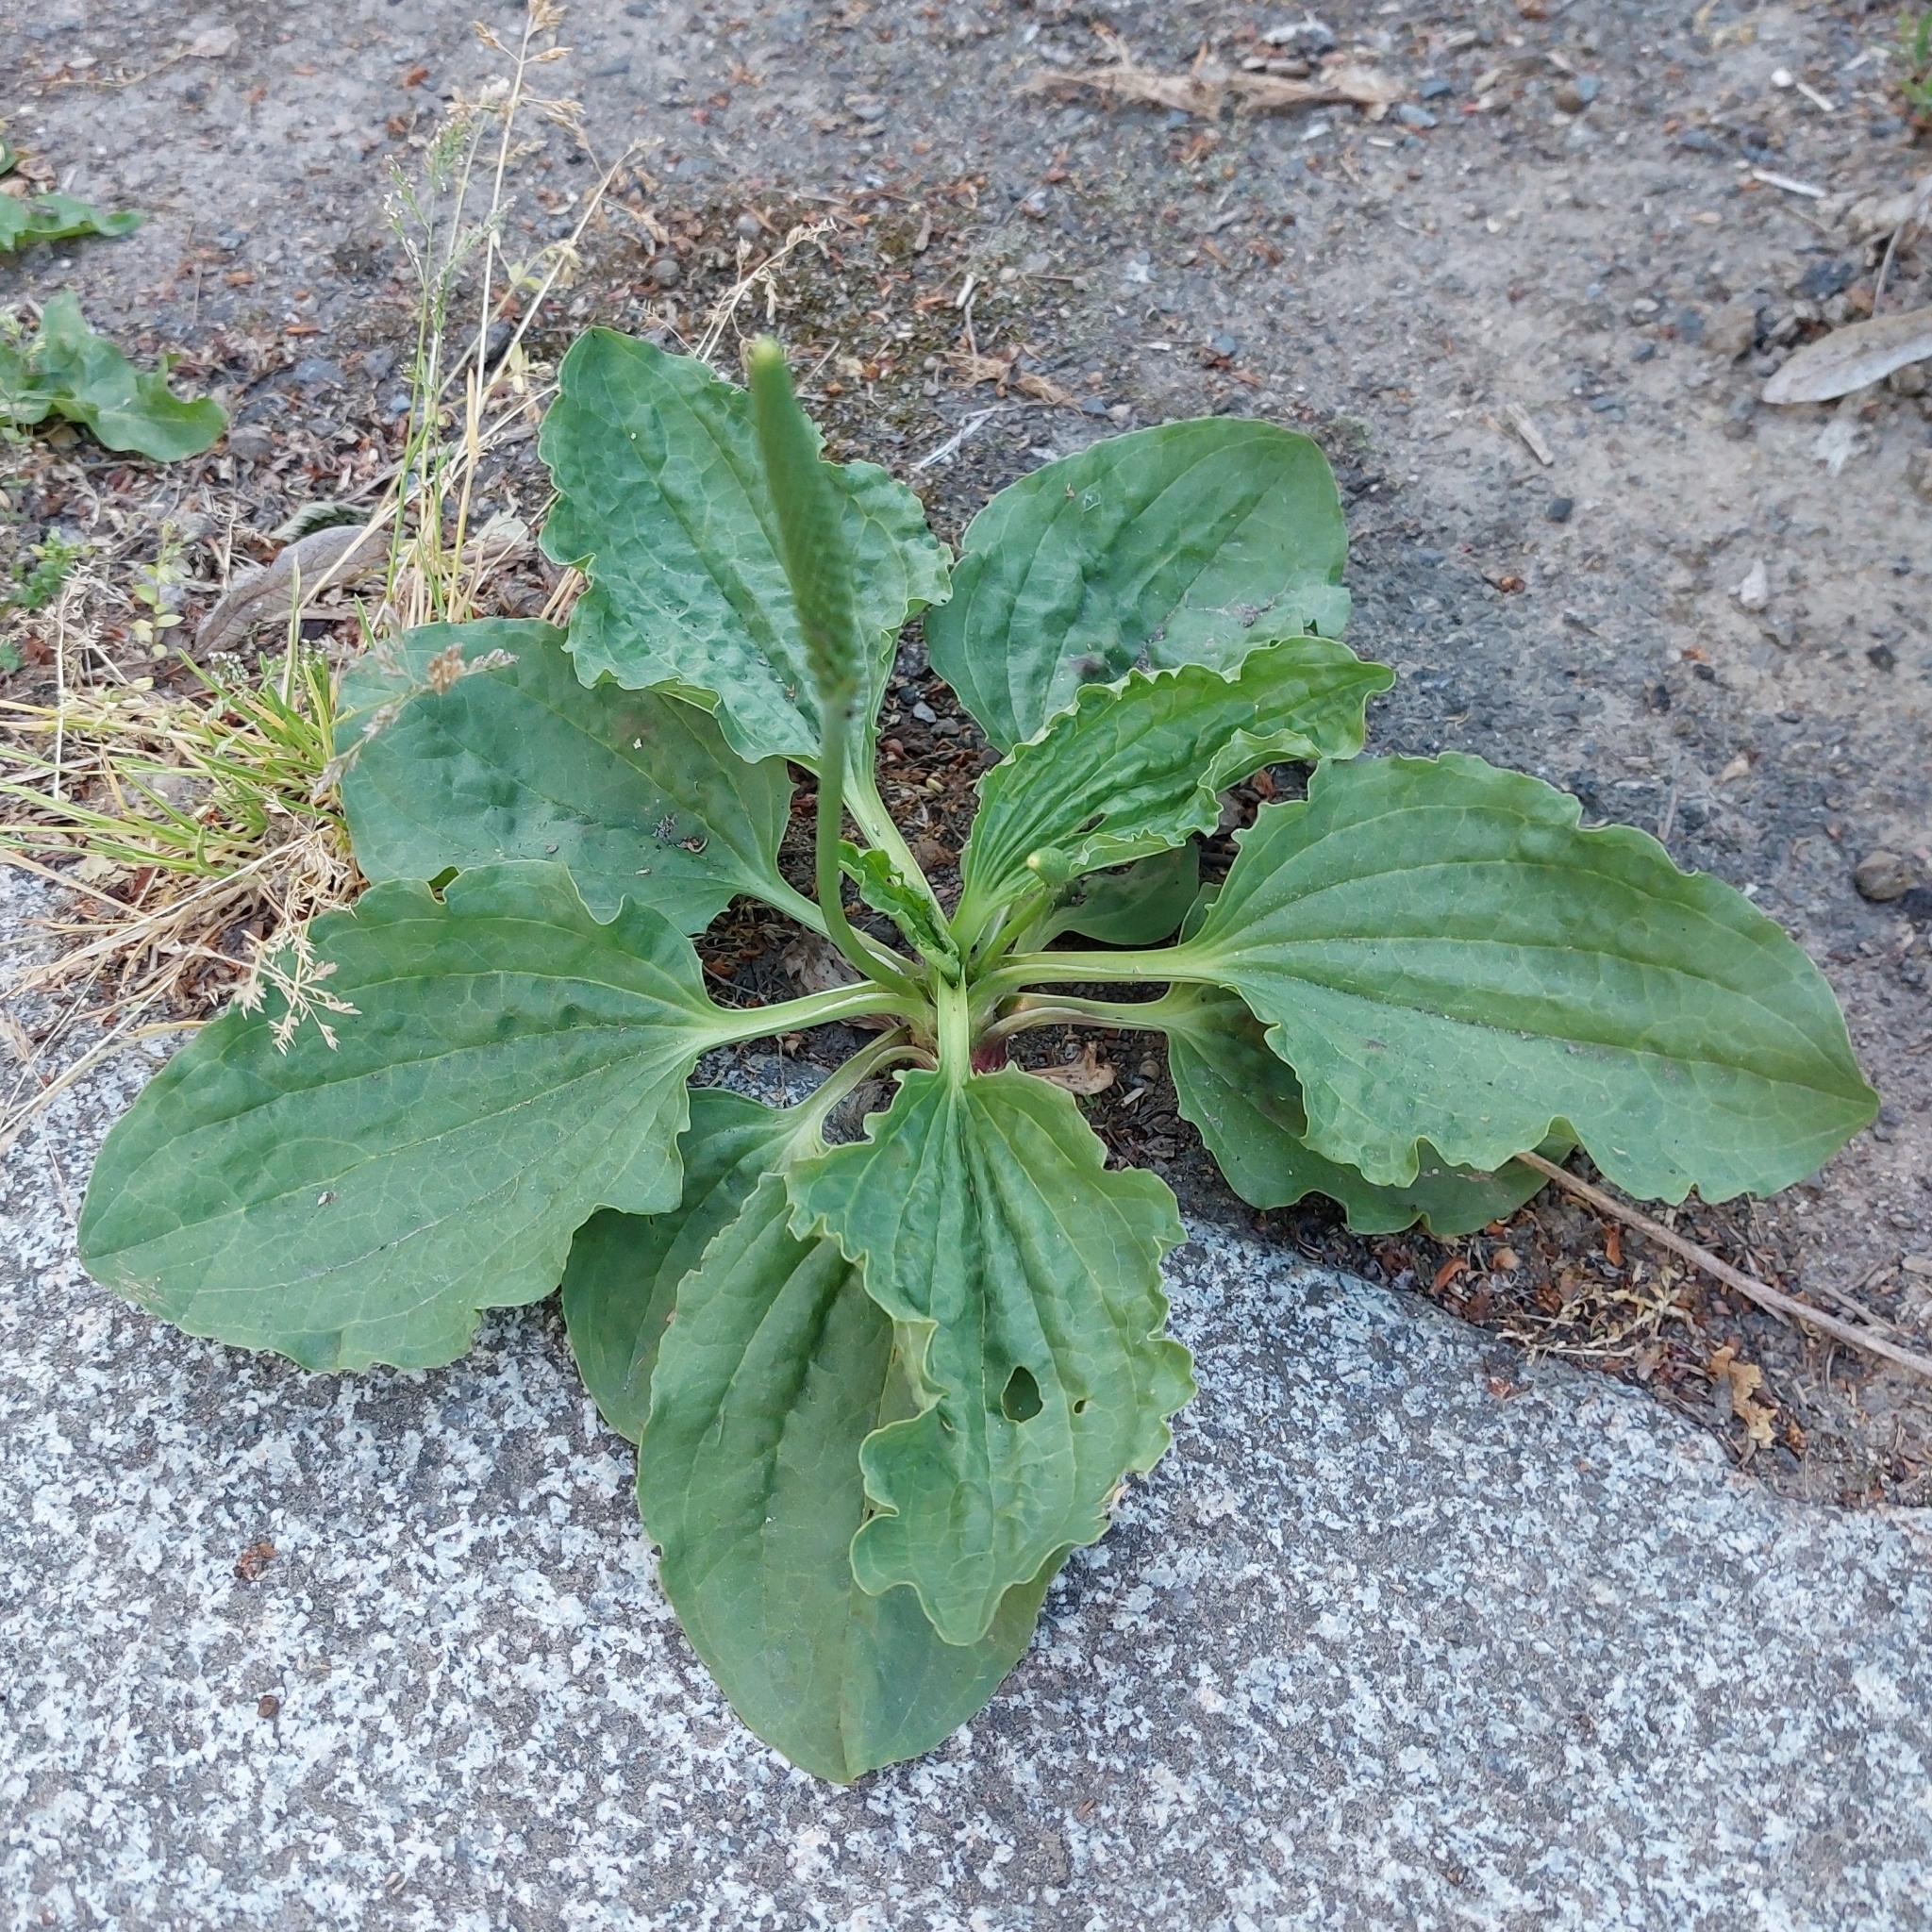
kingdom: Plantae
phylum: Tracheophyta
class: Magnoliopsida
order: Lamiales
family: Plantaginaceae
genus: Plantago
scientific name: Plantago major
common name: Common plantain
